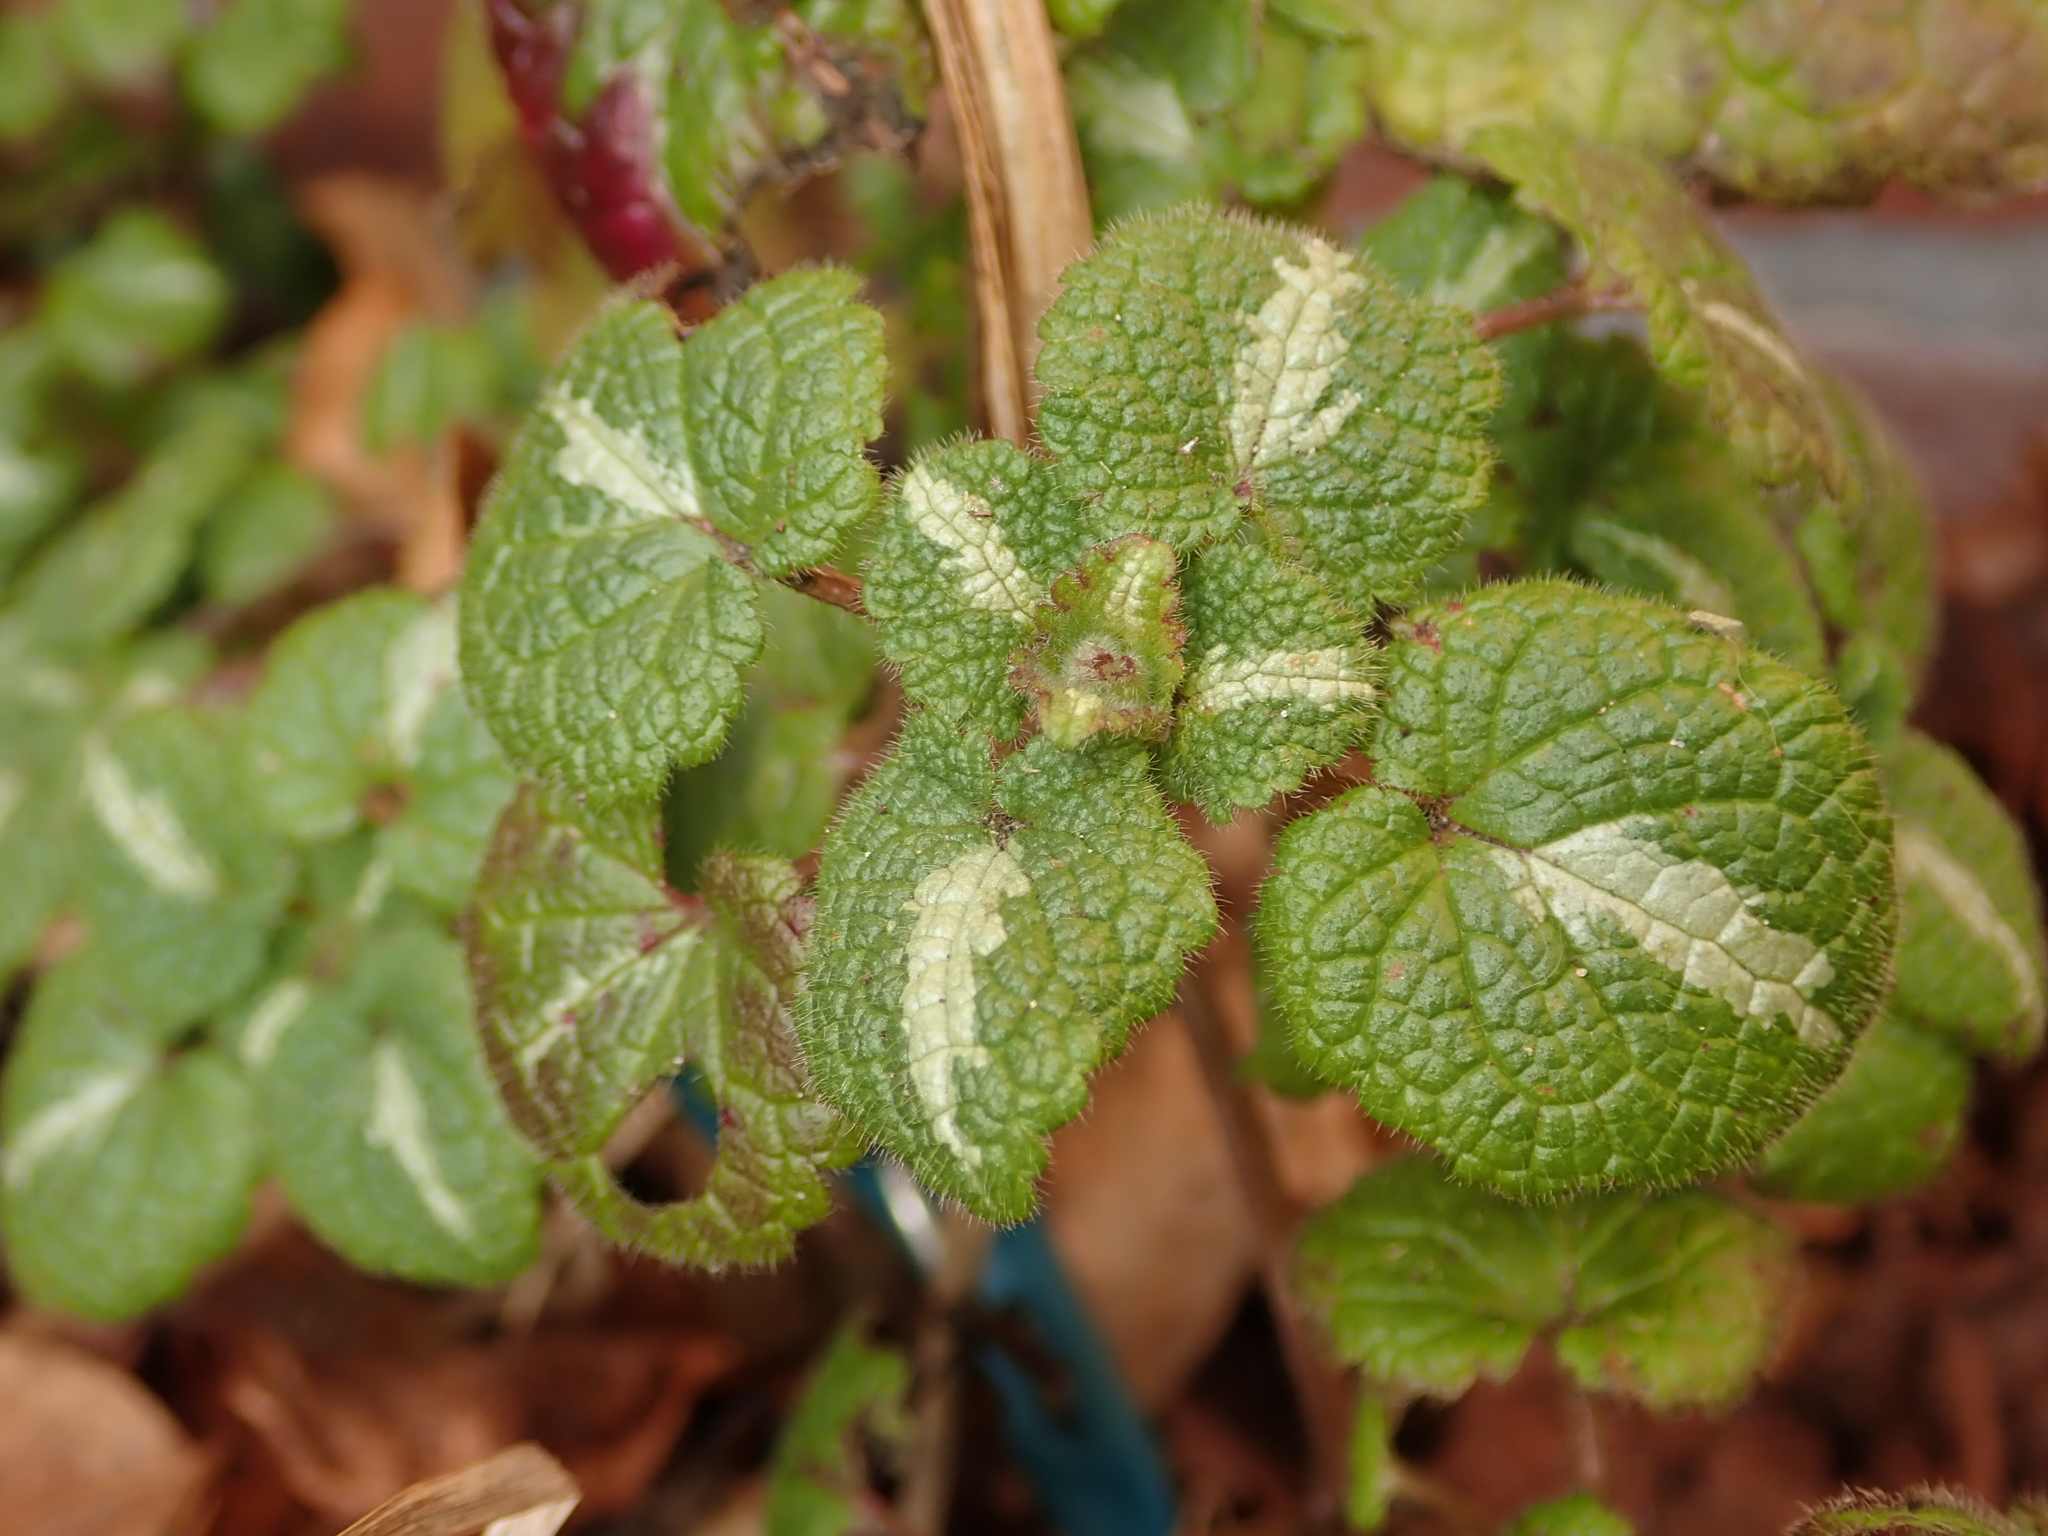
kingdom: Plantae
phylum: Tracheophyta
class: Magnoliopsida
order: Lamiales
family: Lamiaceae
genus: Lamium
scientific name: Lamium maculatum
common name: Spotted dead-nettle
